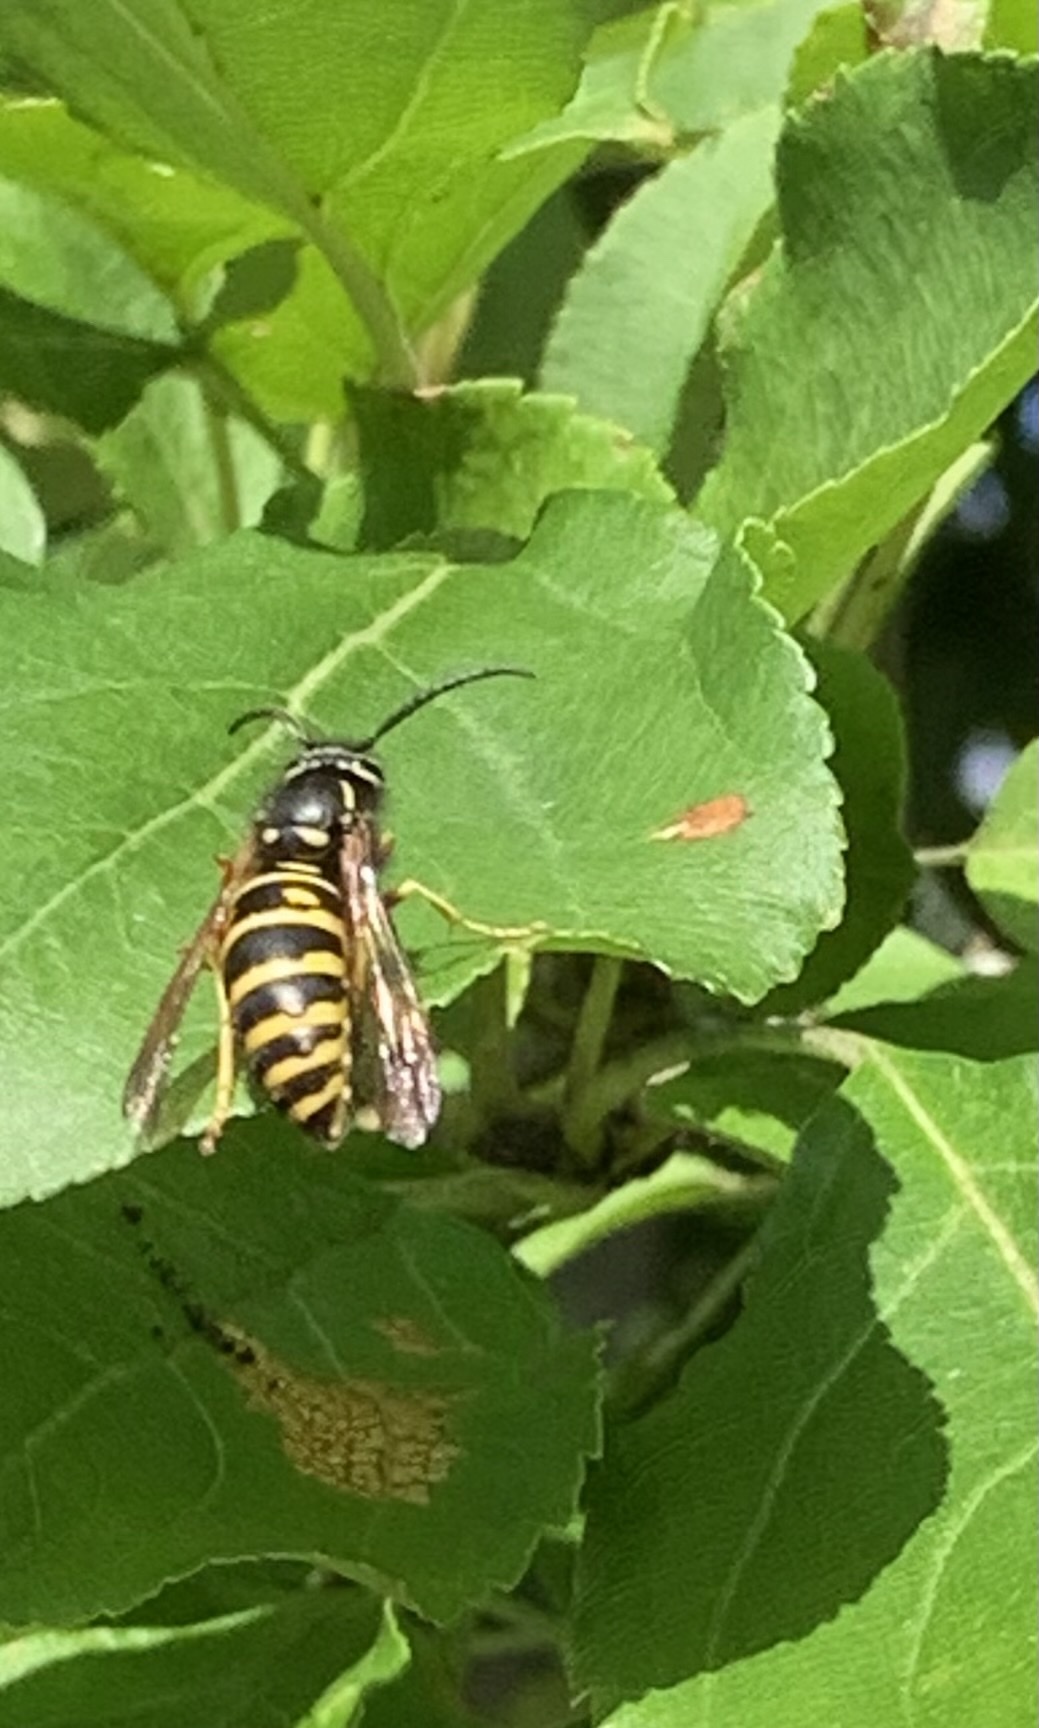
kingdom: Animalia
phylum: Arthropoda
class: Insecta
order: Hymenoptera
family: Vespidae
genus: Vespula
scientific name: Vespula acadica
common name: Forest yellowjacket
